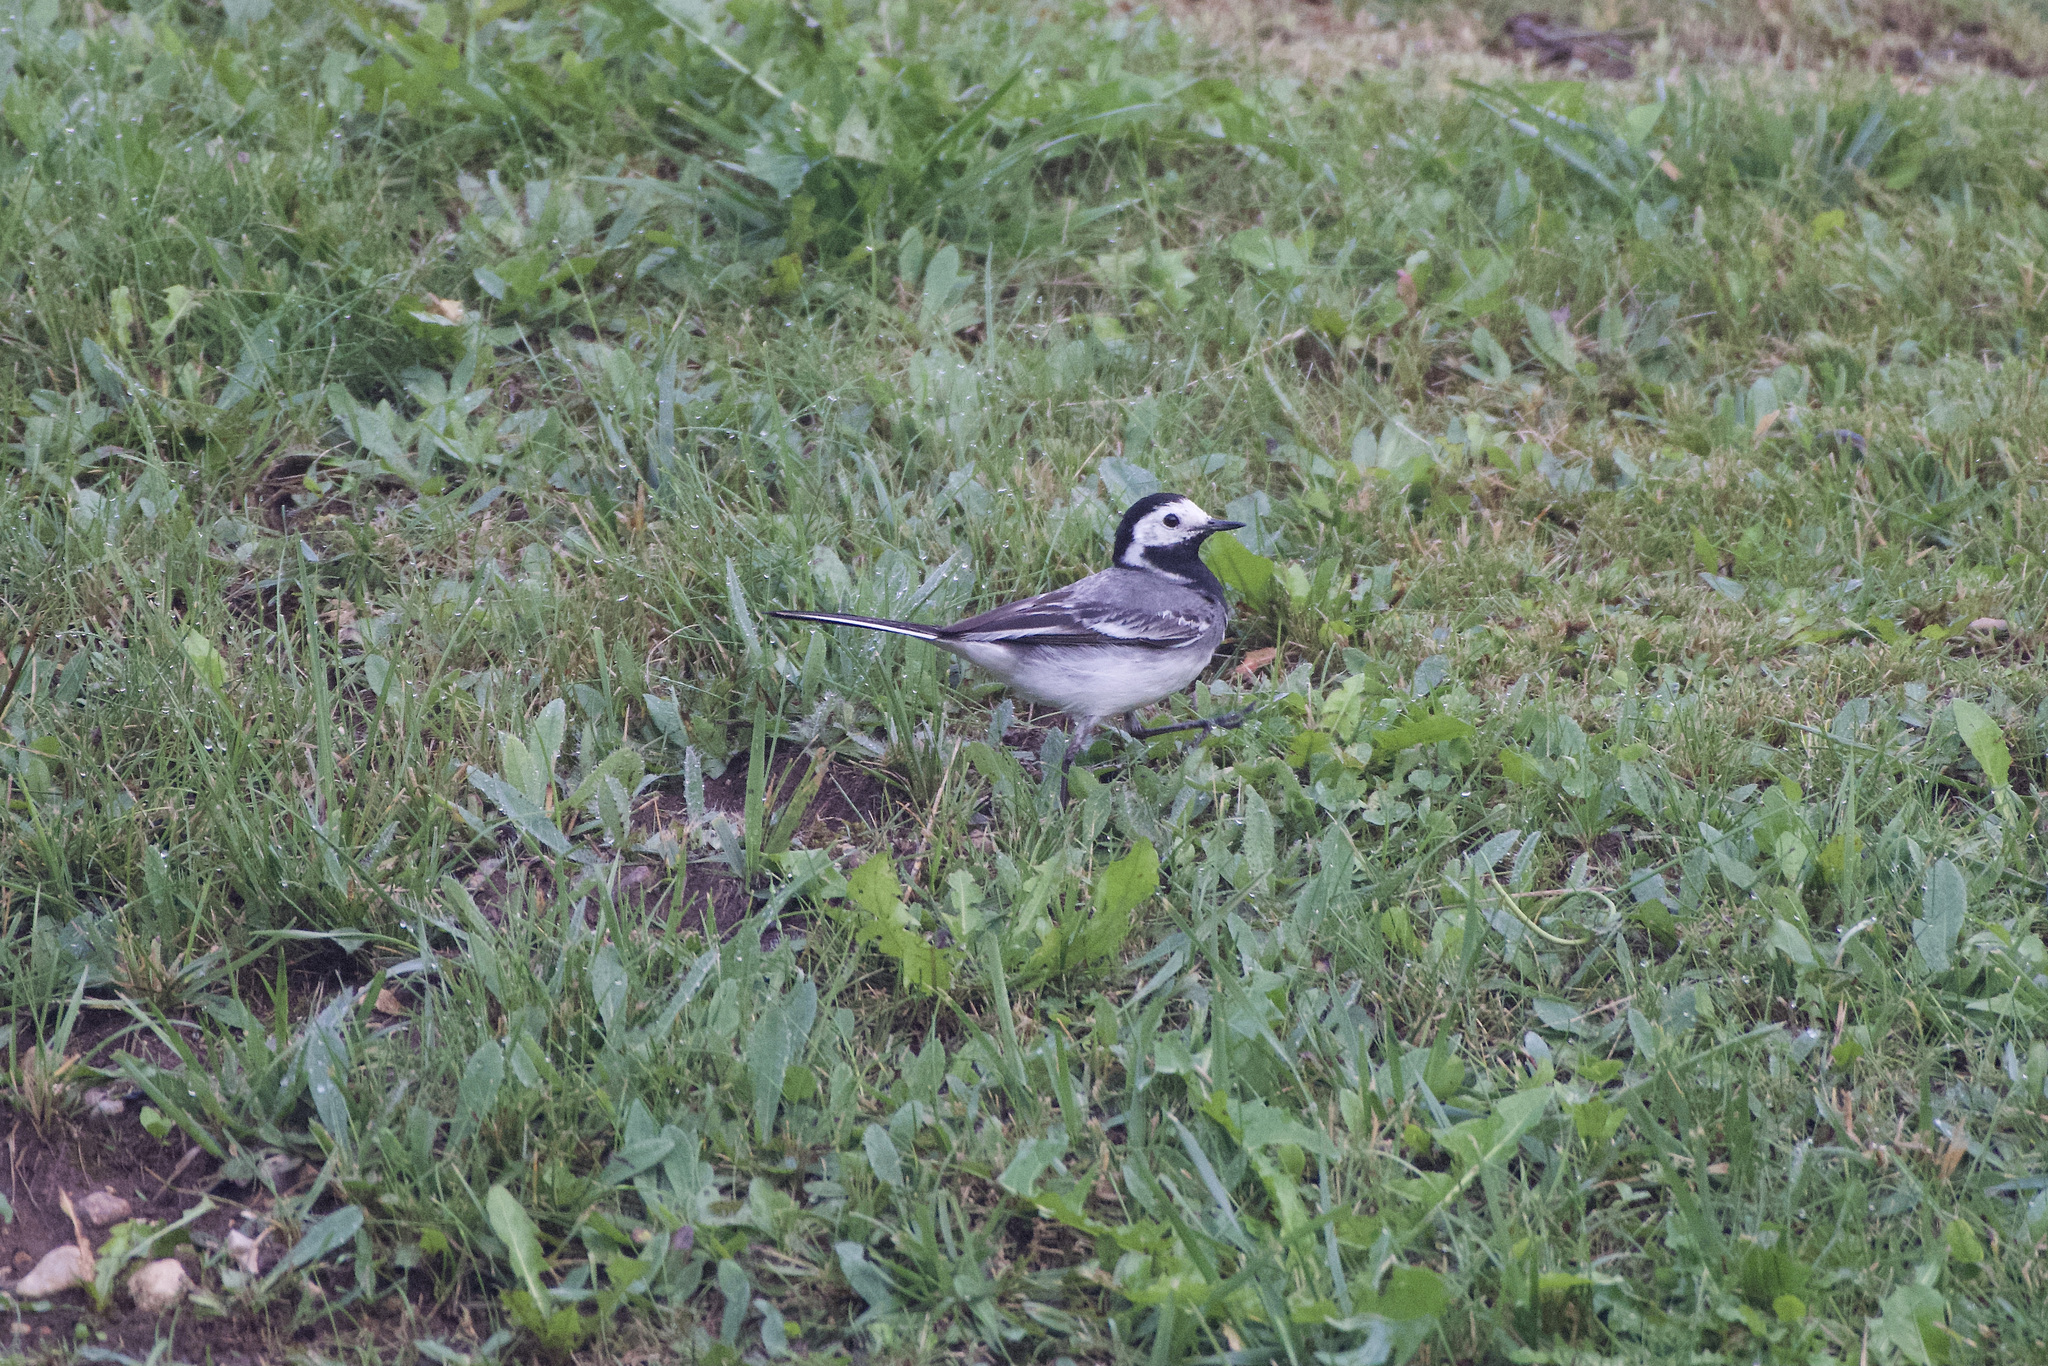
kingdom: Animalia
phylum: Chordata
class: Aves
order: Passeriformes
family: Motacillidae
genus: Motacilla
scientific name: Motacilla alba
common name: White wagtail
